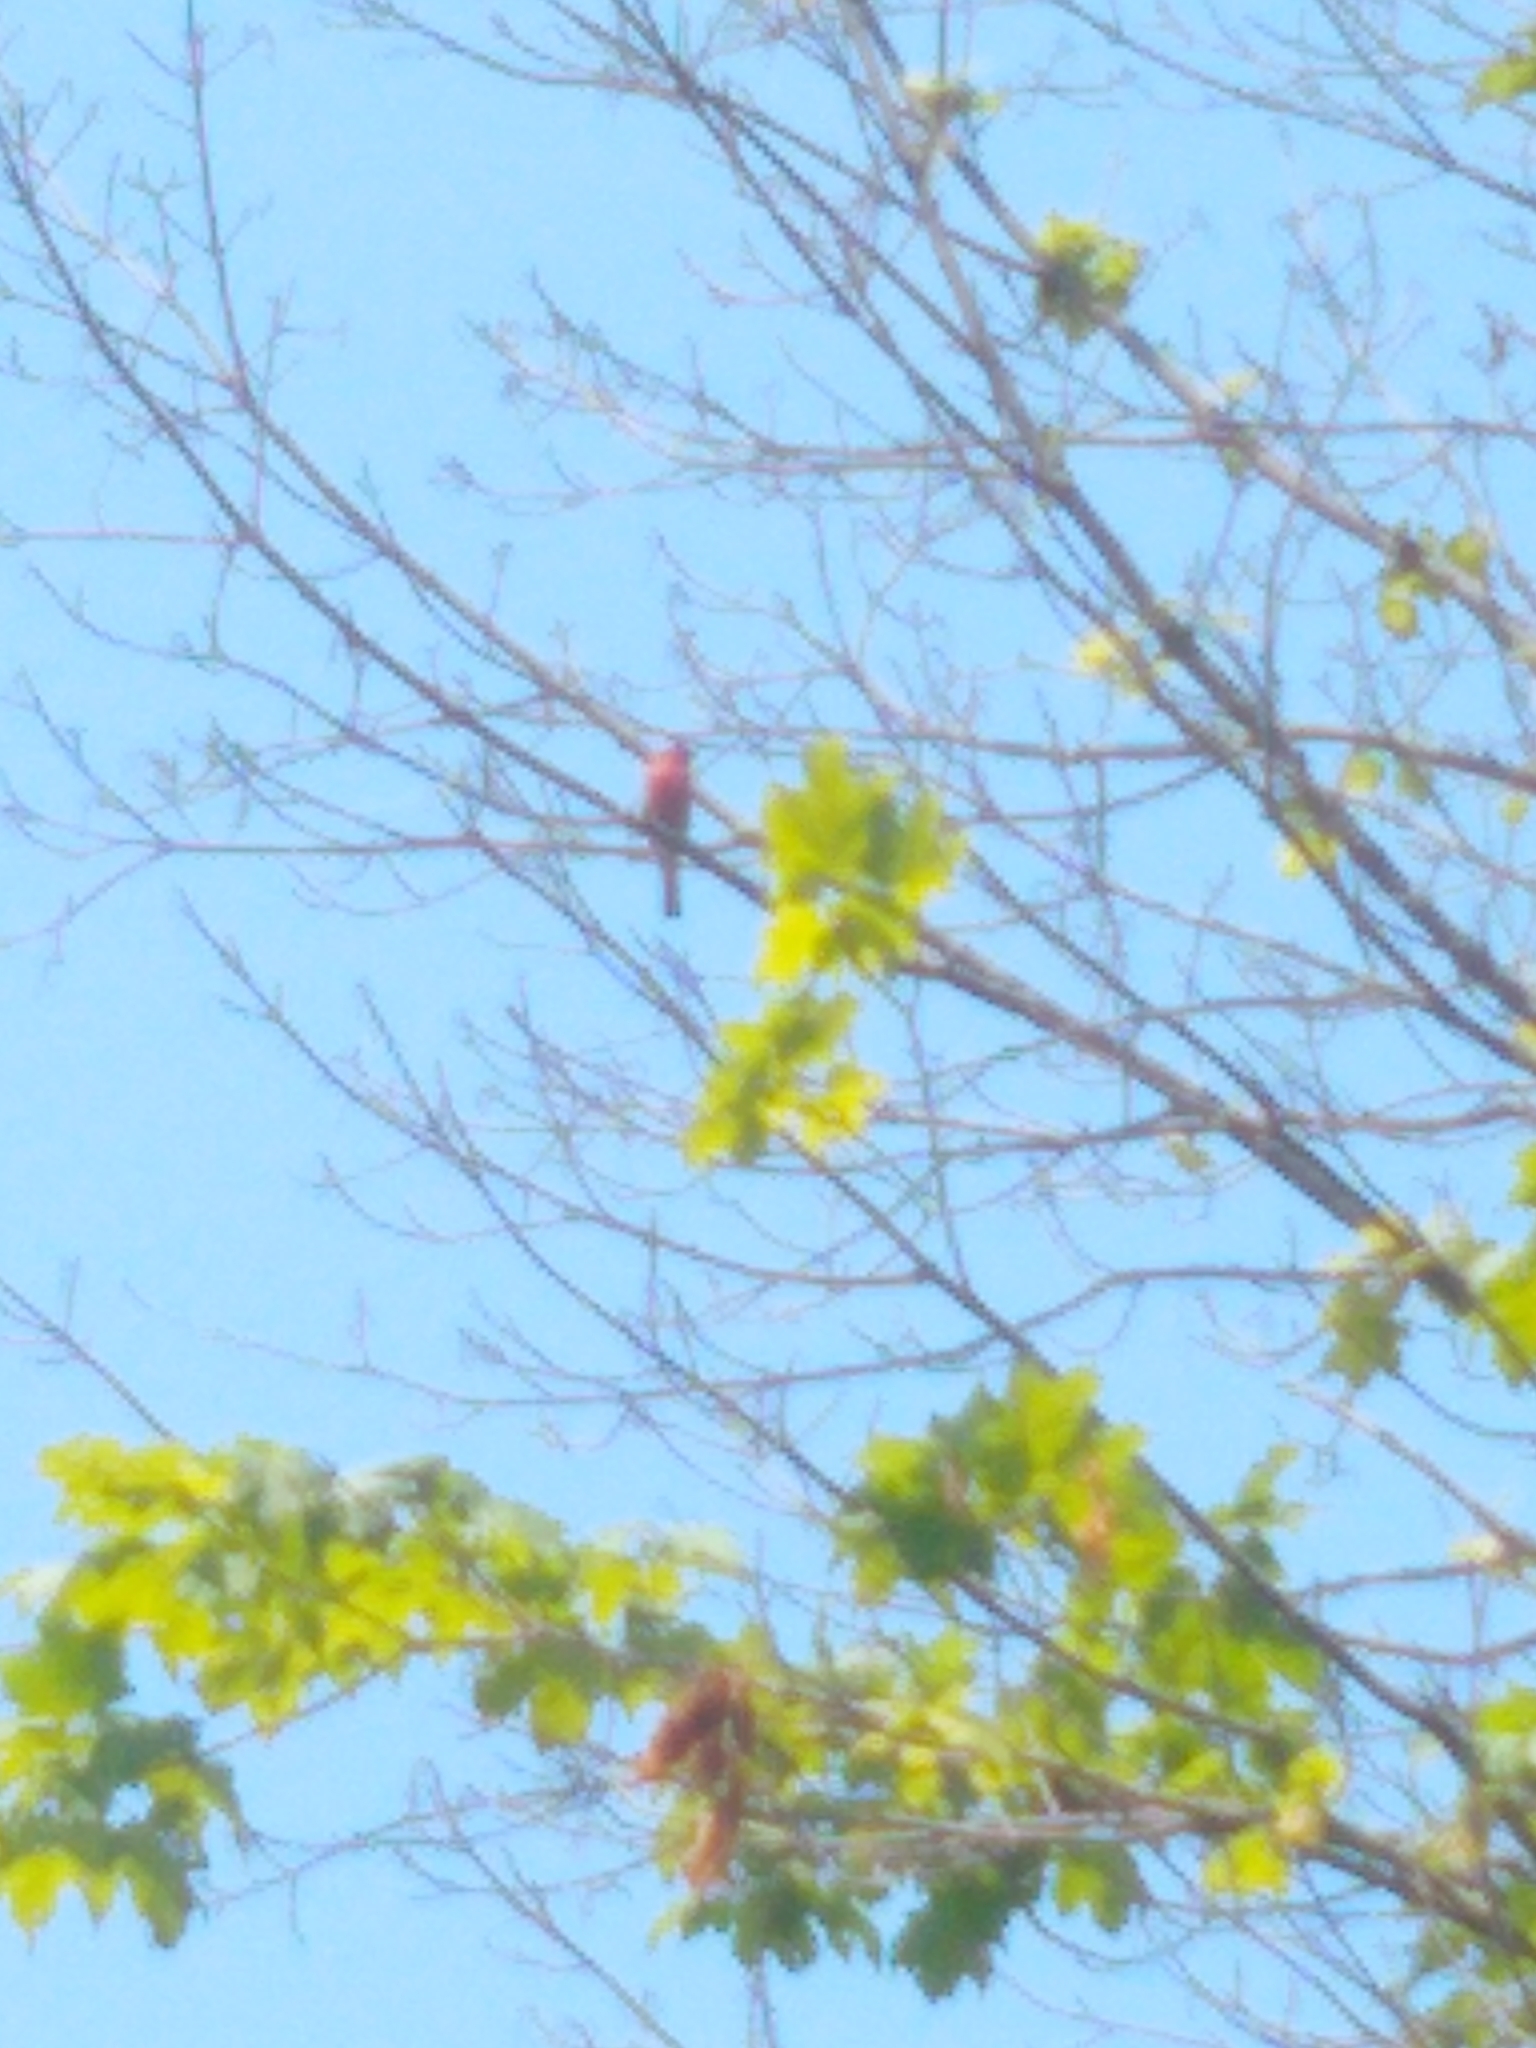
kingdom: Animalia
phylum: Chordata
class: Aves
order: Passeriformes
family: Fringillidae
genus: Haemorhous
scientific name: Haemorhous mexicanus
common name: House finch
